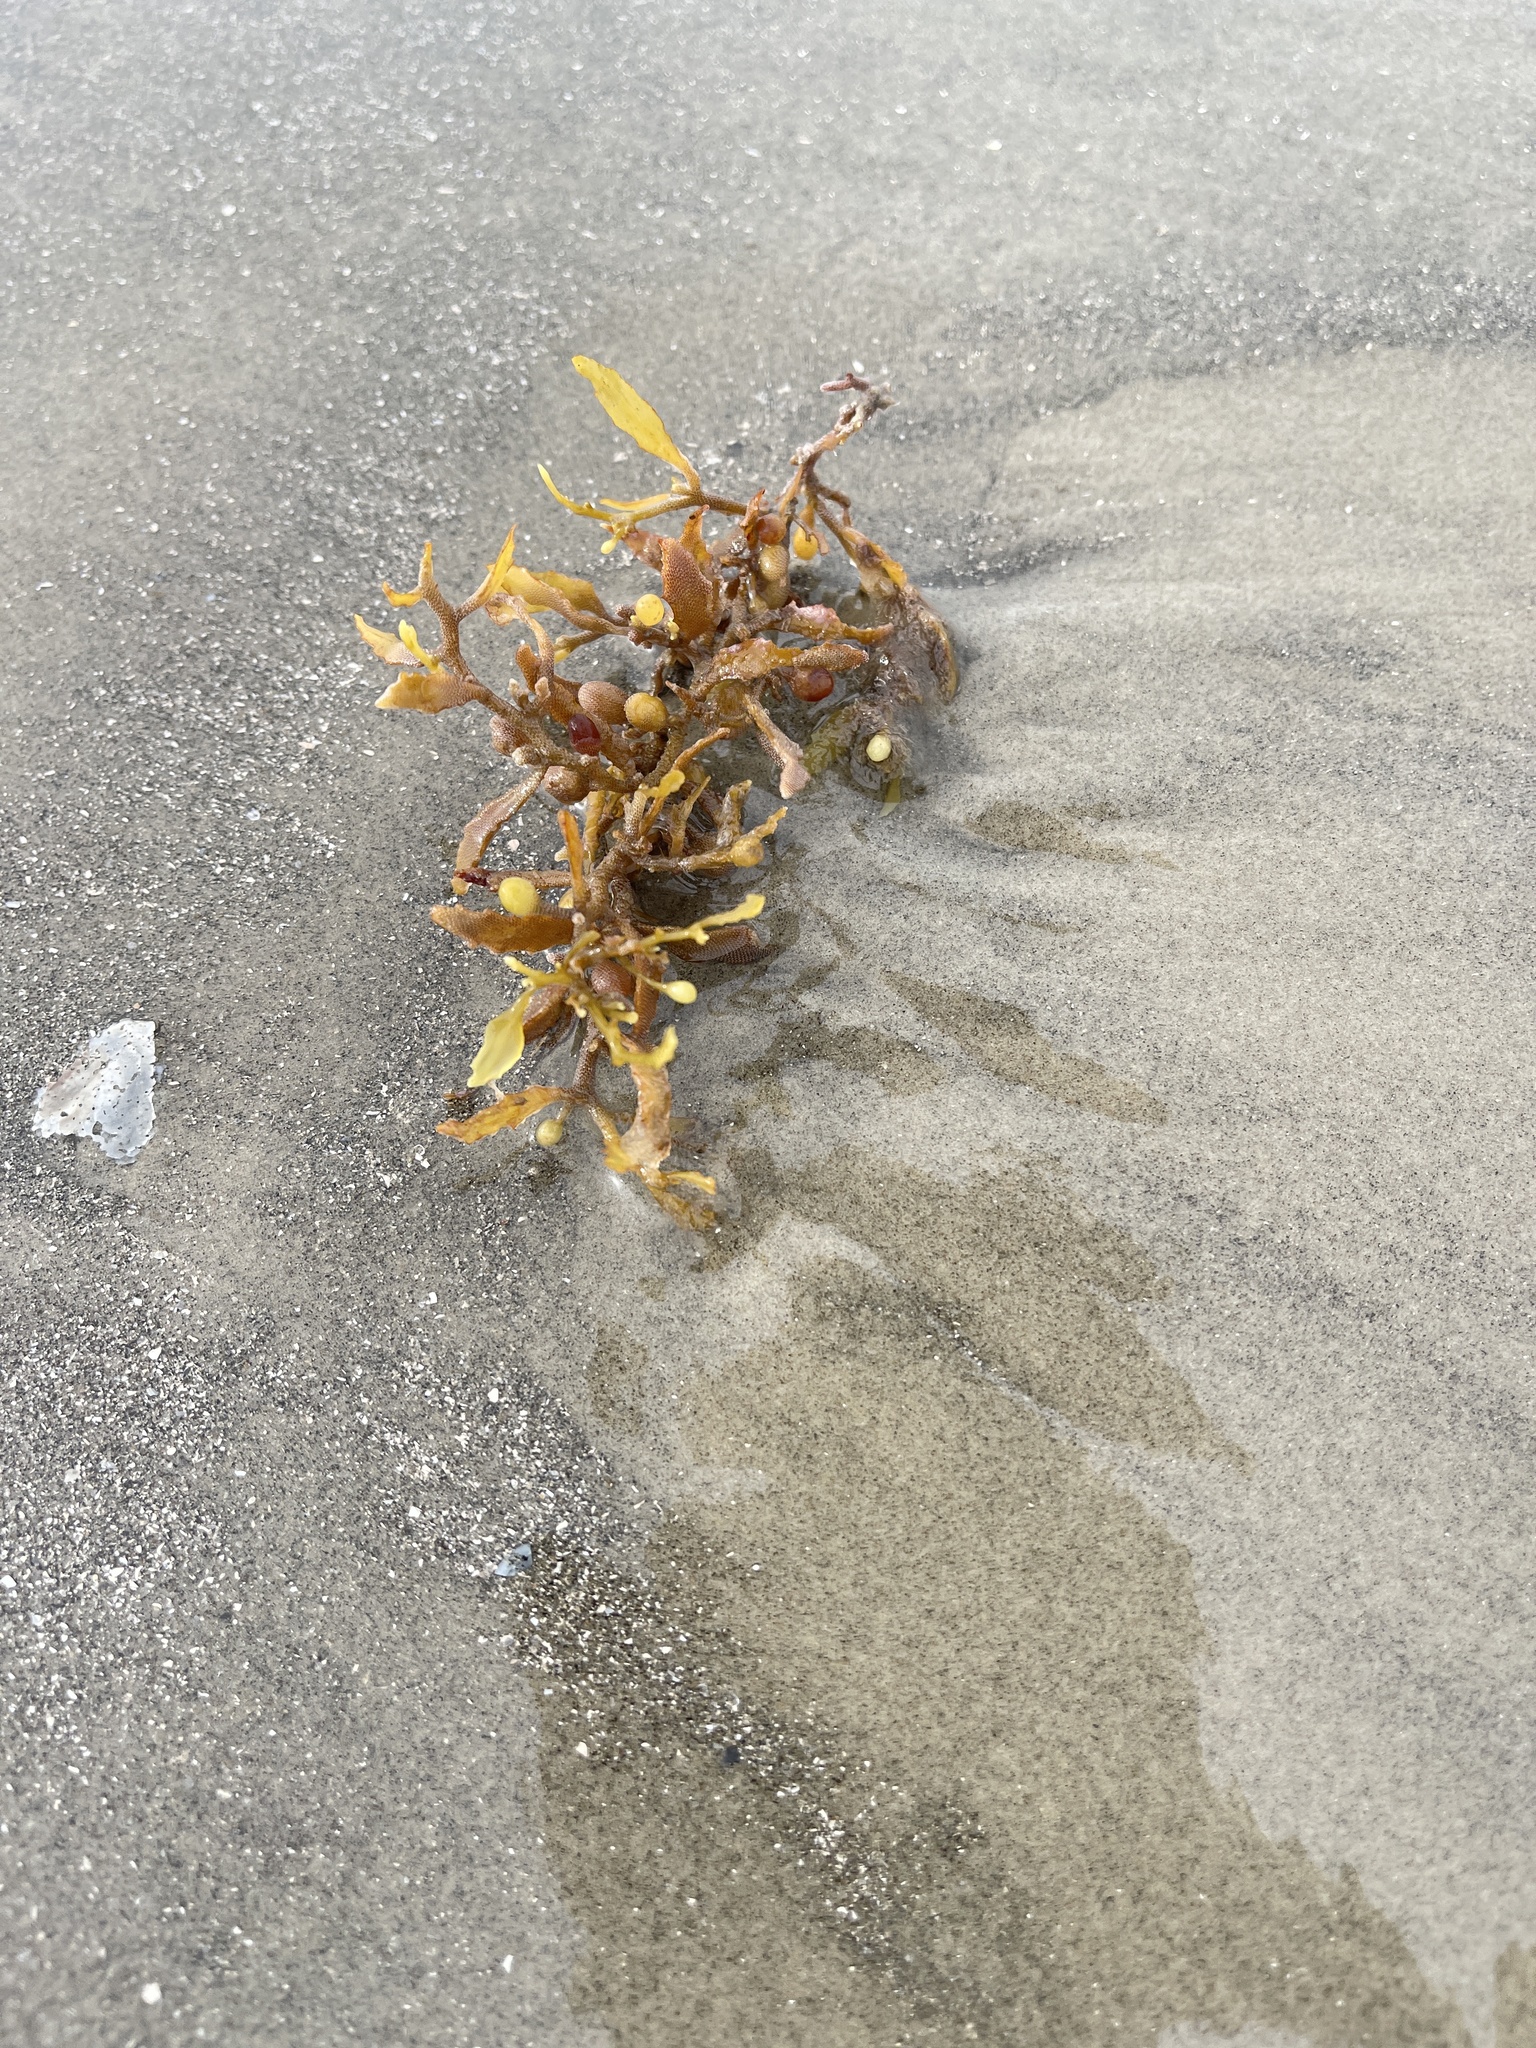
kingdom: Chromista
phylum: Ochrophyta
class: Phaeophyceae
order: Fucales
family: Sargassaceae
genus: Sargassum
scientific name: Sargassum fluitans
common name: Sargassum seaweed
